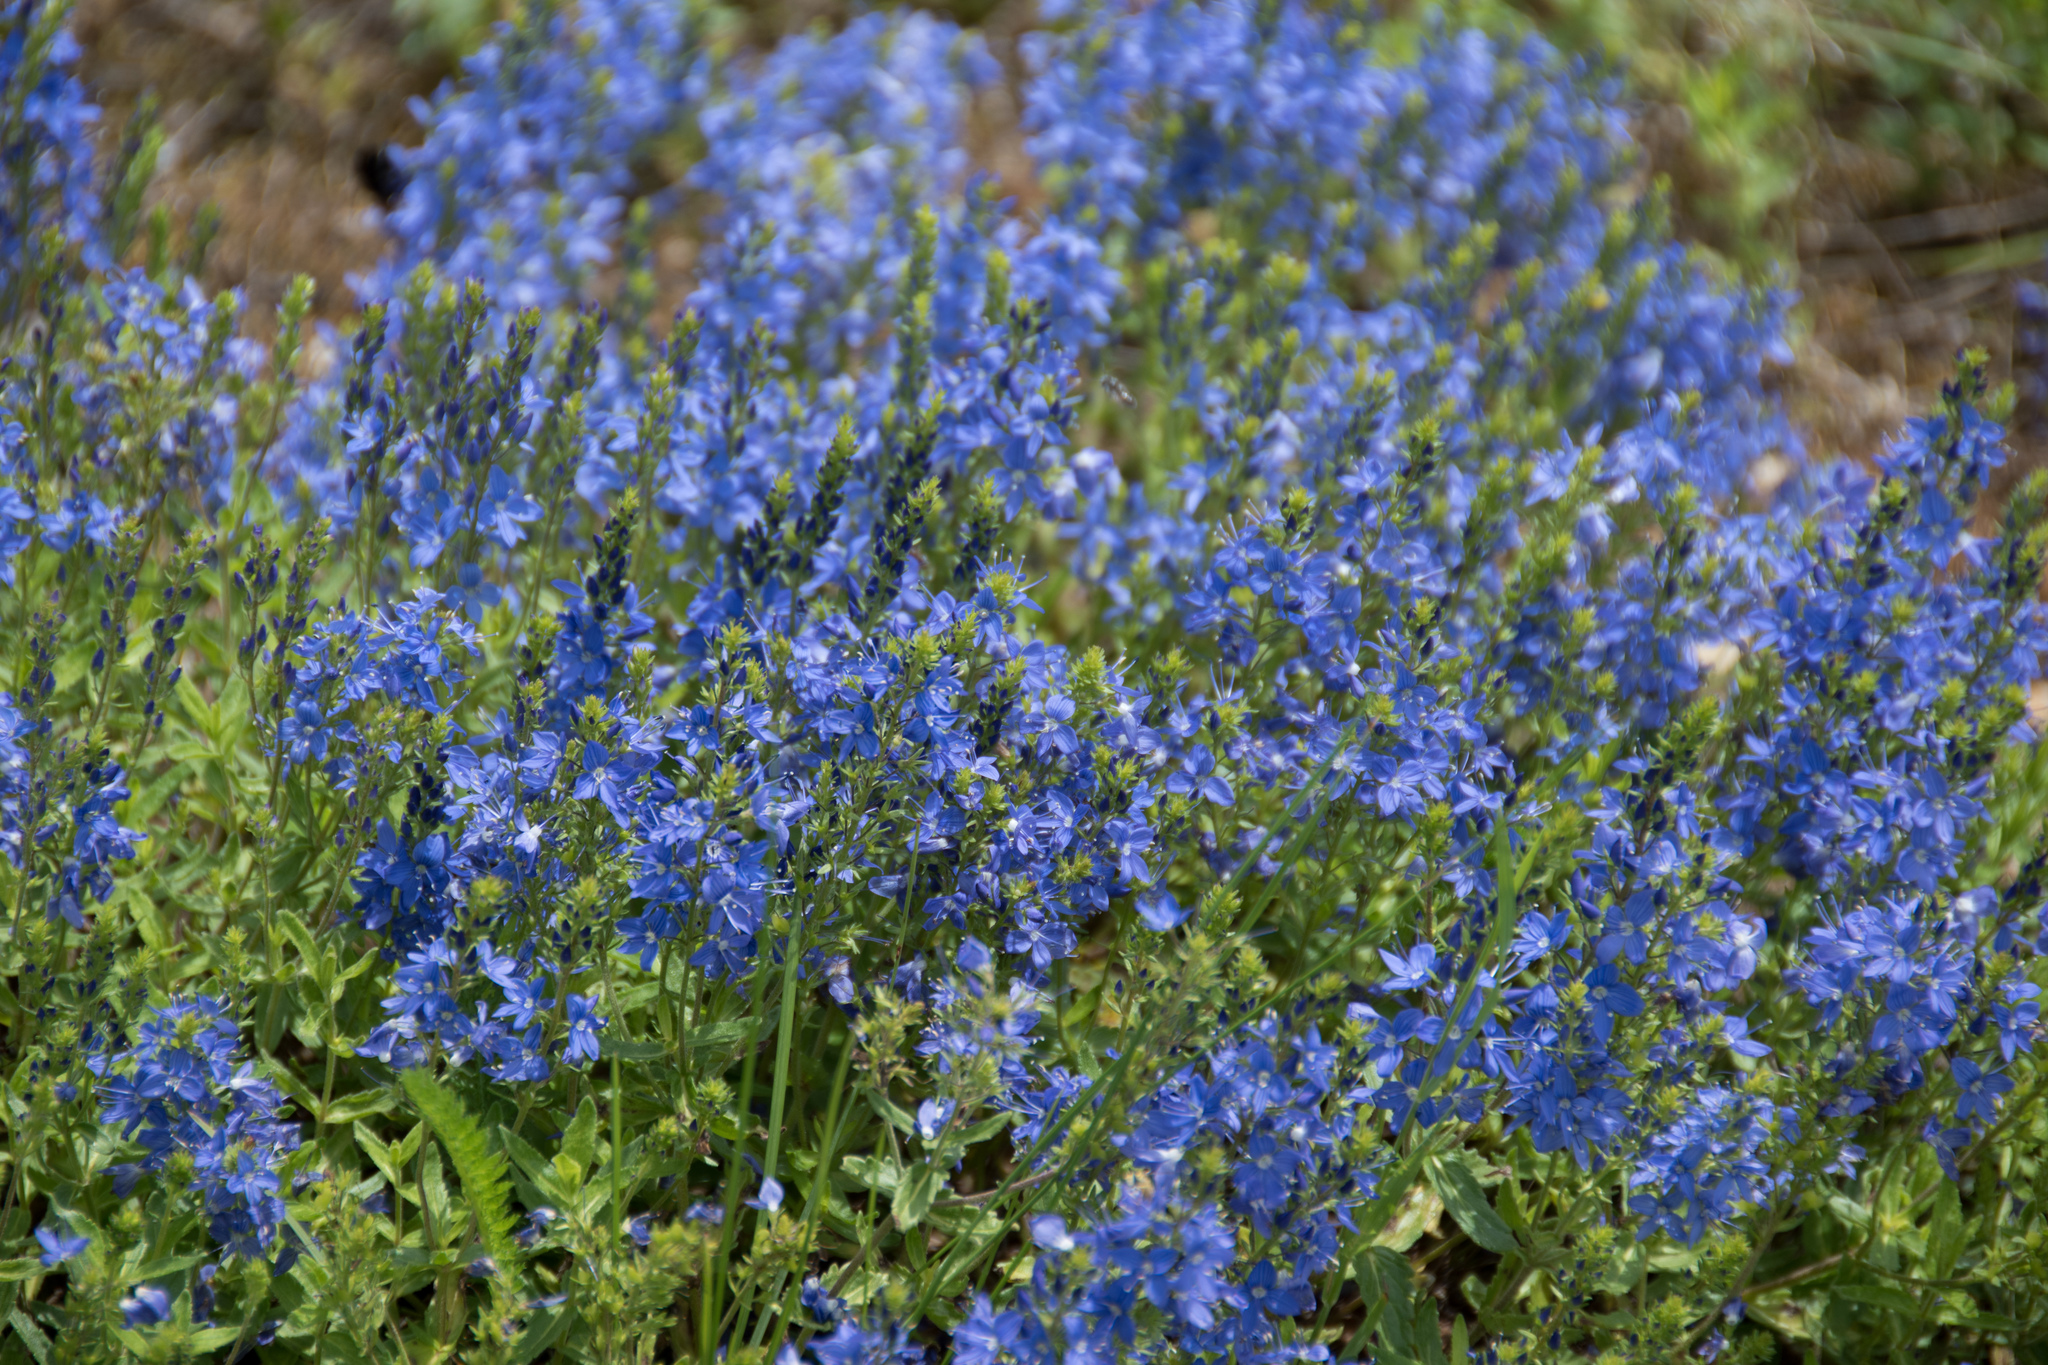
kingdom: Plantae
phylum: Tracheophyta
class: Magnoliopsida
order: Lamiales
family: Plantaginaceae
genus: Veronica
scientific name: Veronica teucrium
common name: Large speedwell
